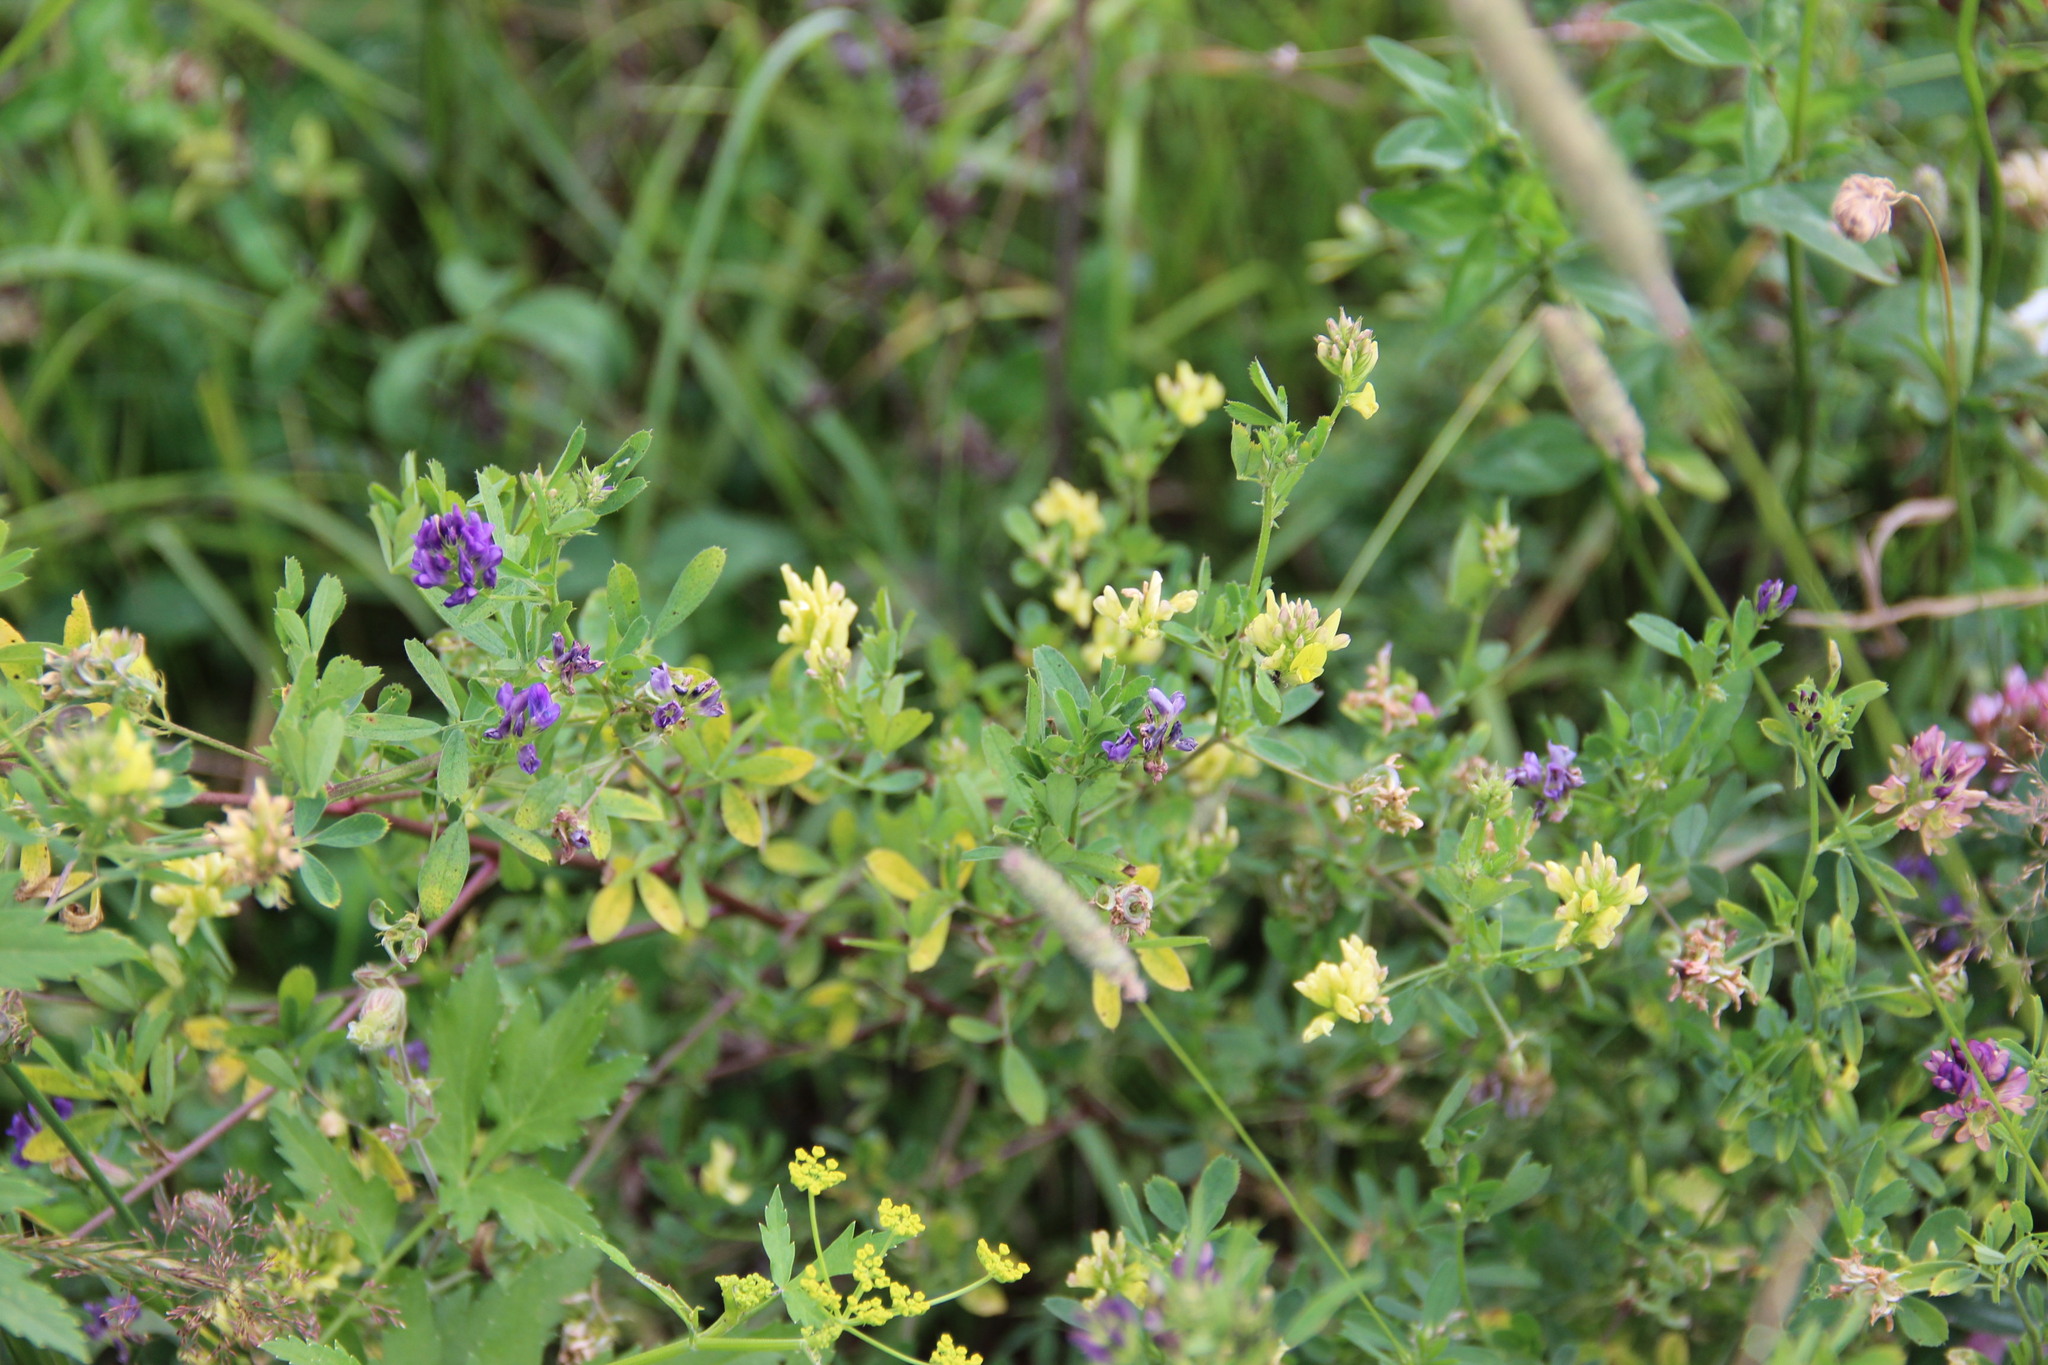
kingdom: Plantae
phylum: Tracheophyta
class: Magnoliopsida
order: Fabales
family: Fabaceae
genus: Medicago
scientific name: Medicago varia
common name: Sand lucerne
